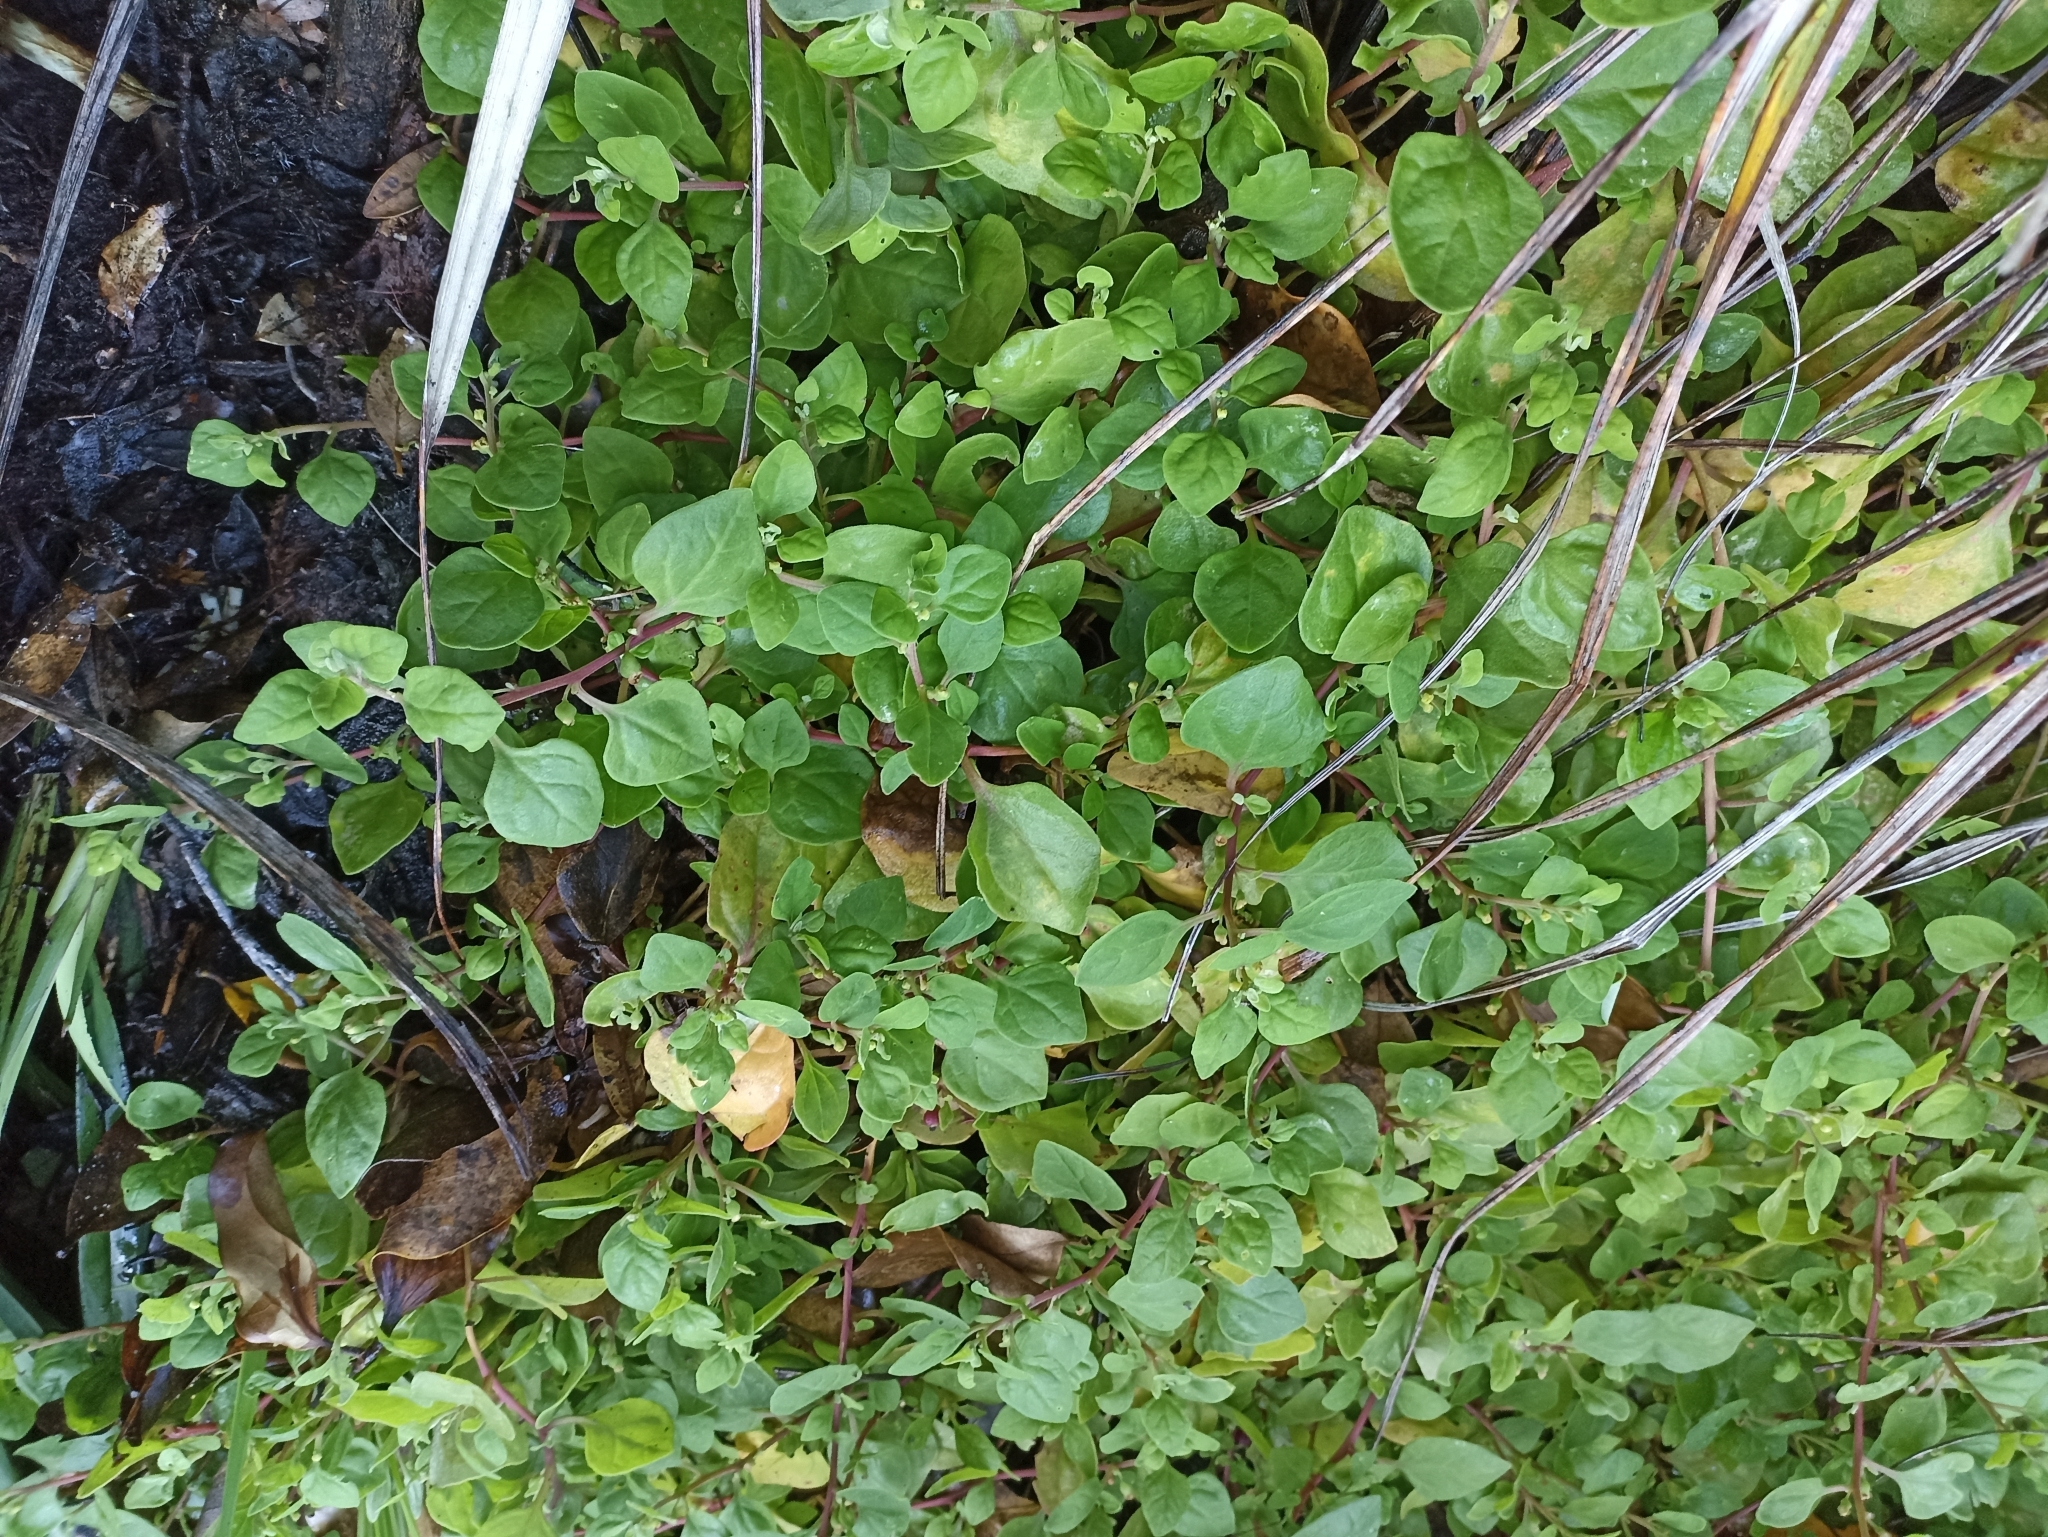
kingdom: Plantae
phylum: Tracheophyta
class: Magnoliopsida
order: Caryophyllales
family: Aizoaceae
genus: Tetragonia
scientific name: Tetragonia implexicoma
